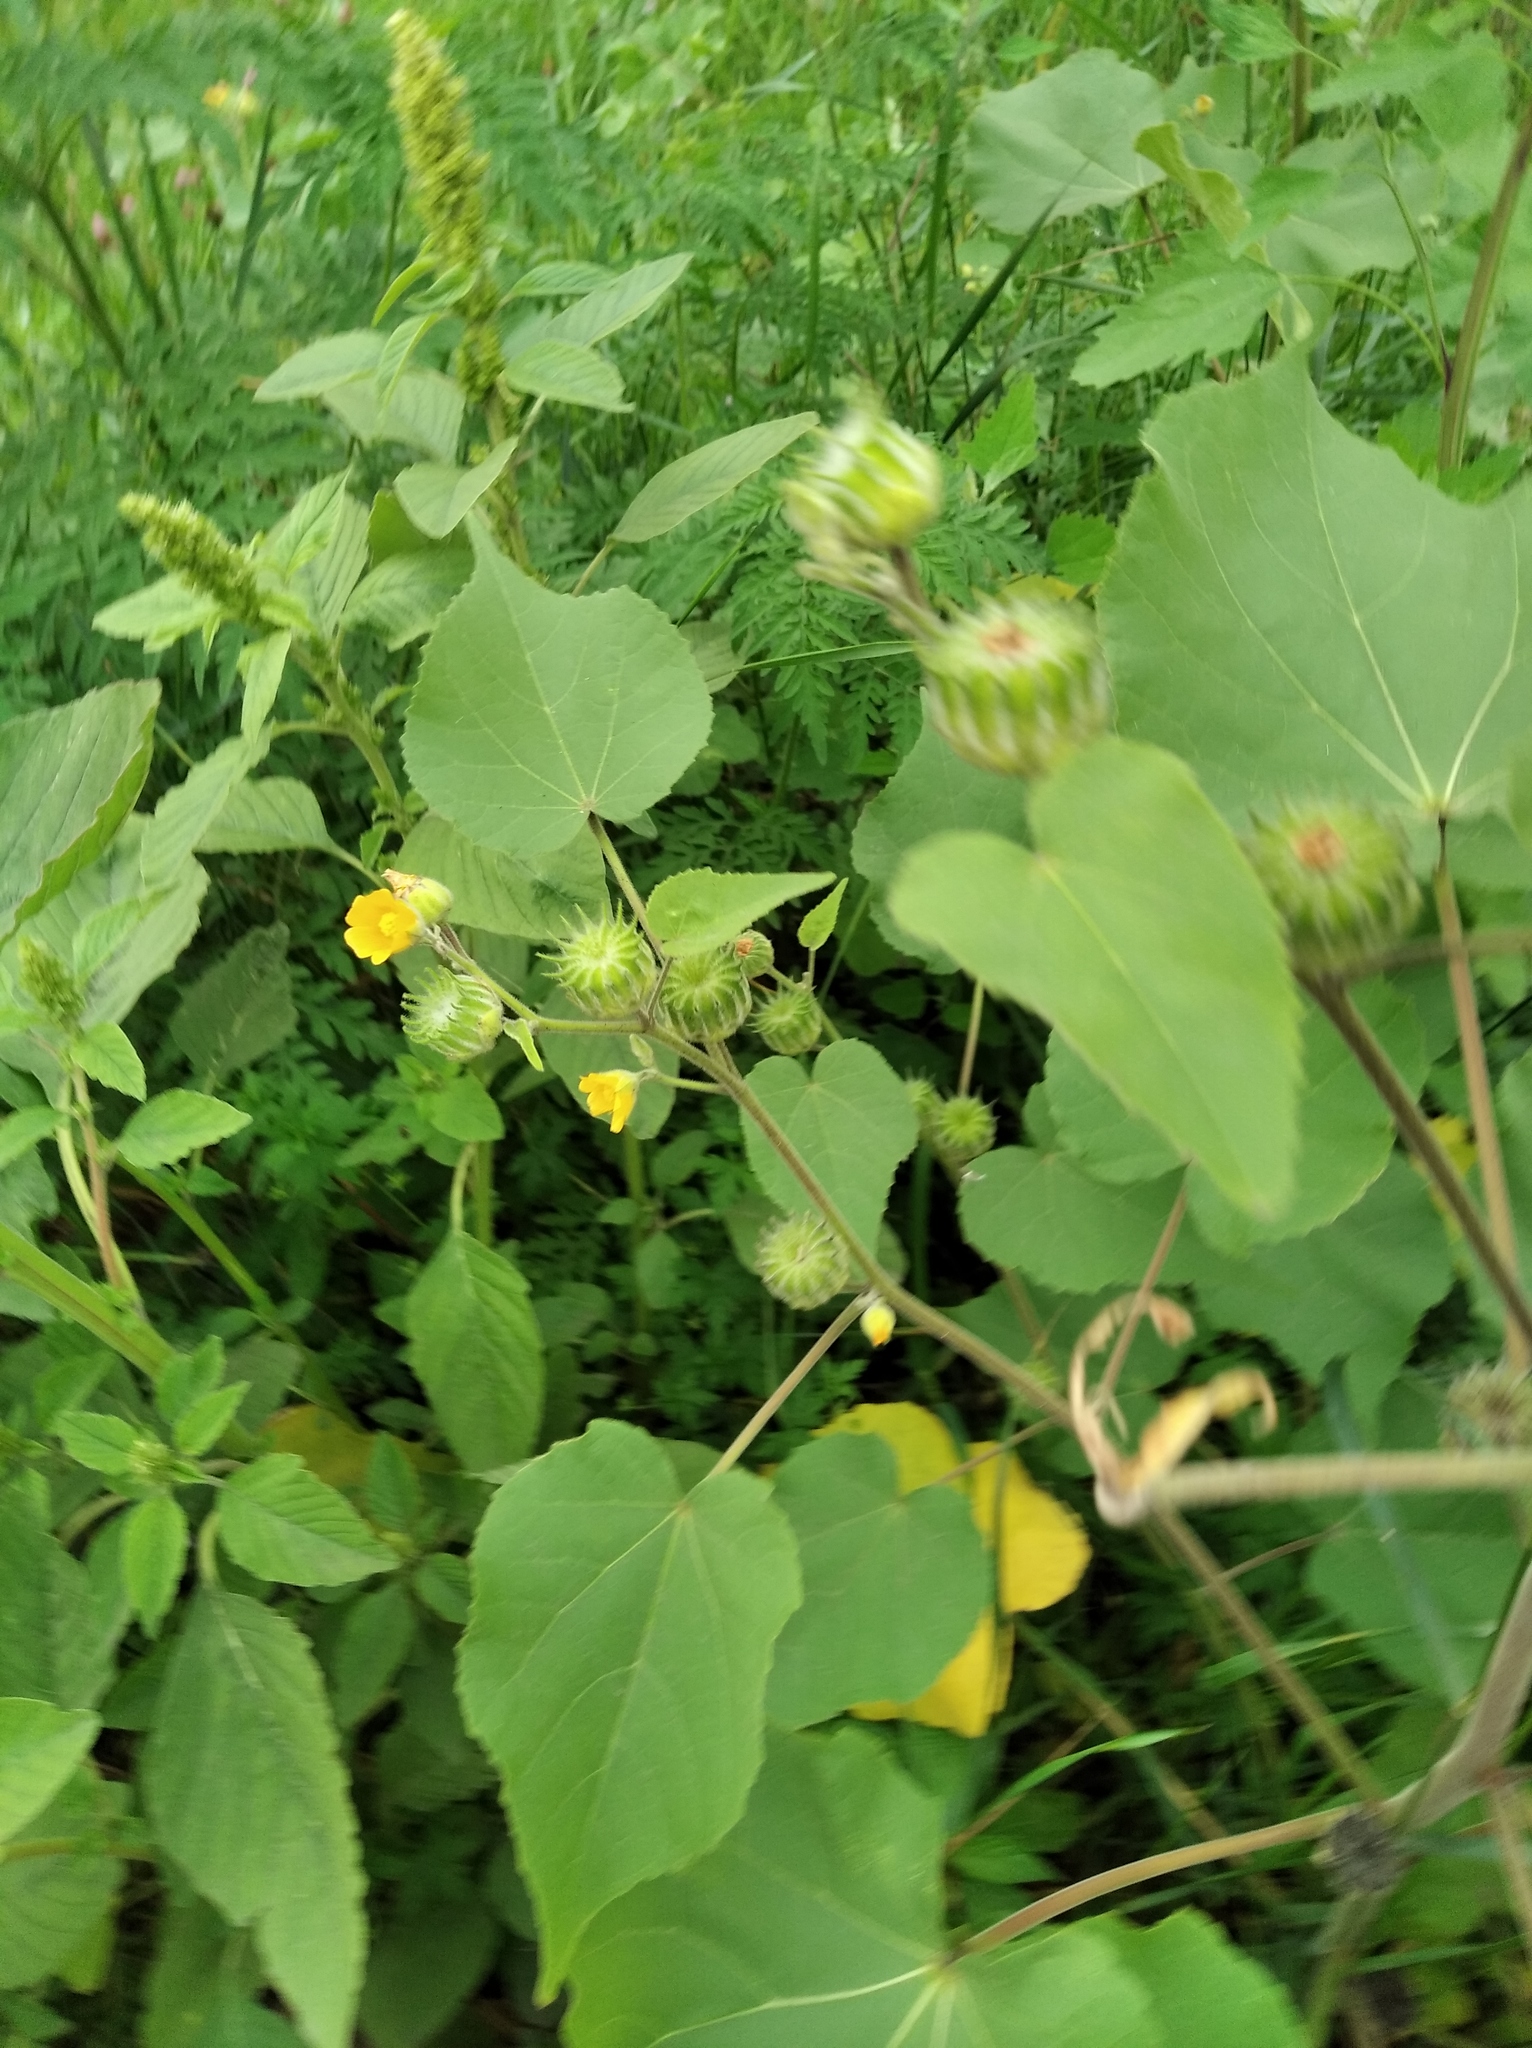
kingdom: Plantae
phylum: Tracheophyta
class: Magnoliopsida
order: Malvales
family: Malvaceae
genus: Abutilon
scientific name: Abutilon theophrasti
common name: Velvetleaf
